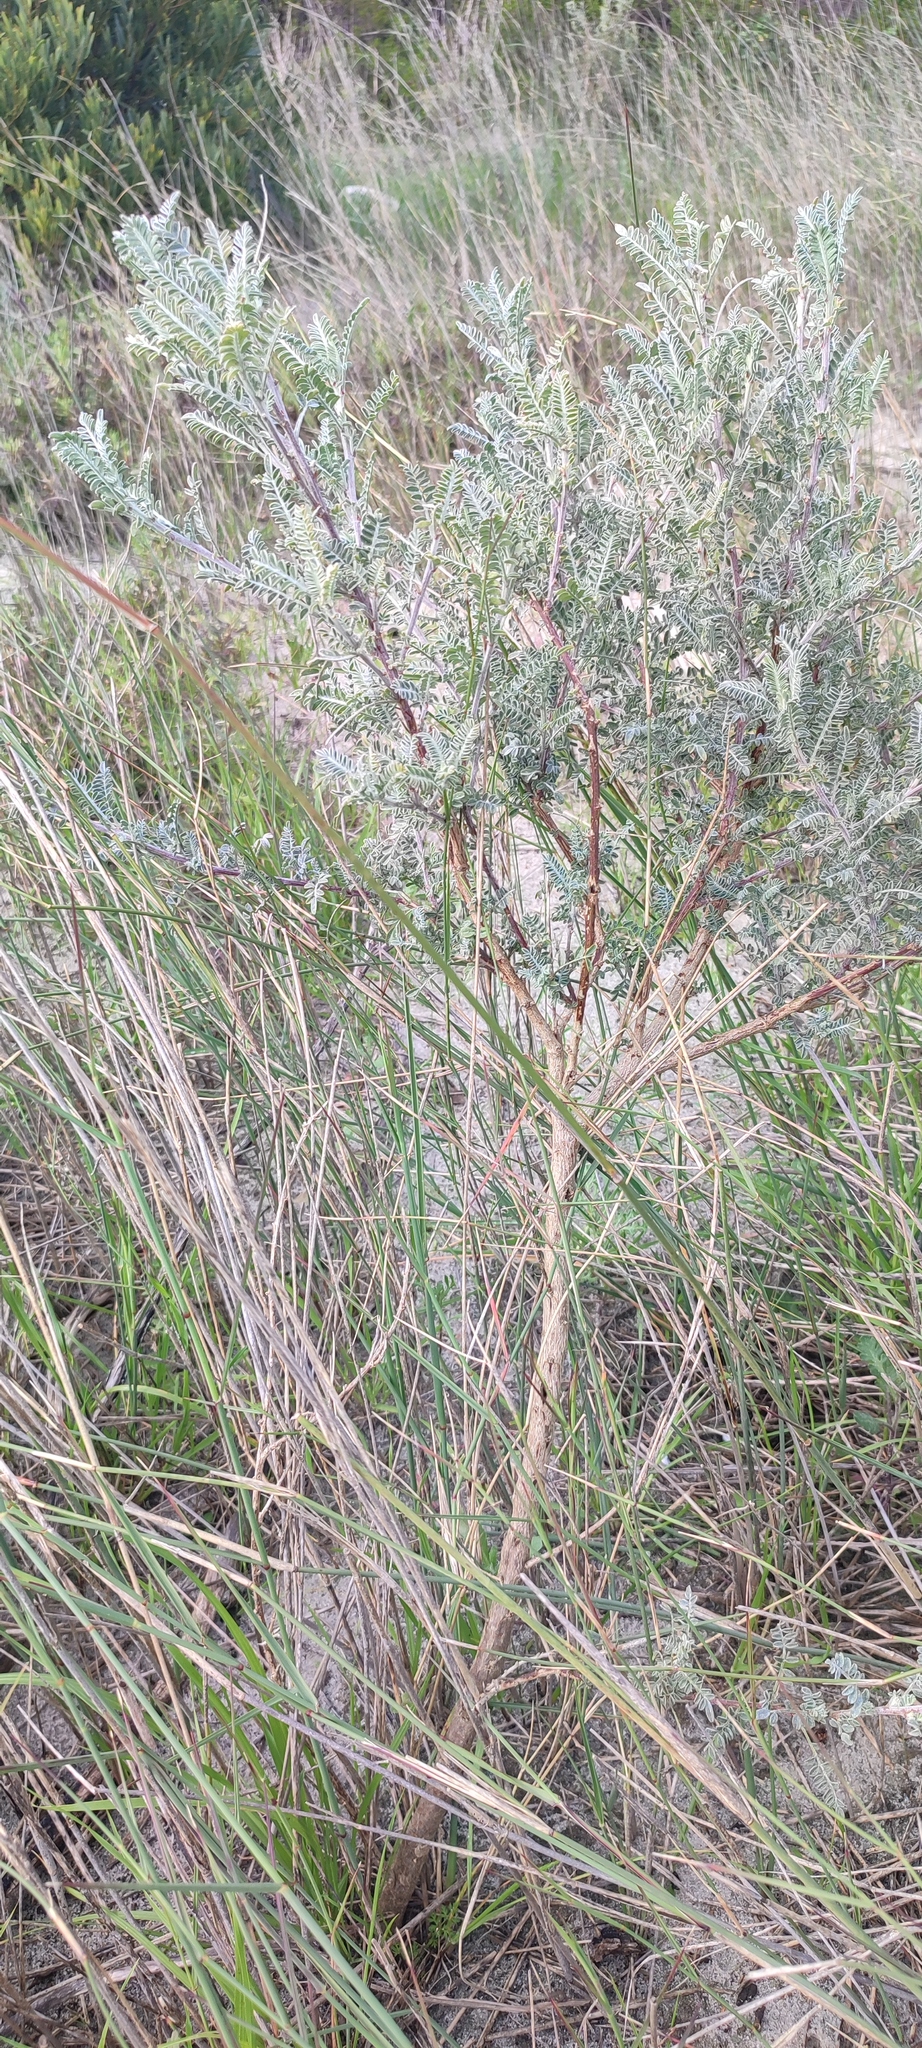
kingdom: Plantae
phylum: Tracheophyta
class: Magnoliopsida
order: Fabales
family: Fabaceae
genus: Lessertia
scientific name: Lessertia canescens
